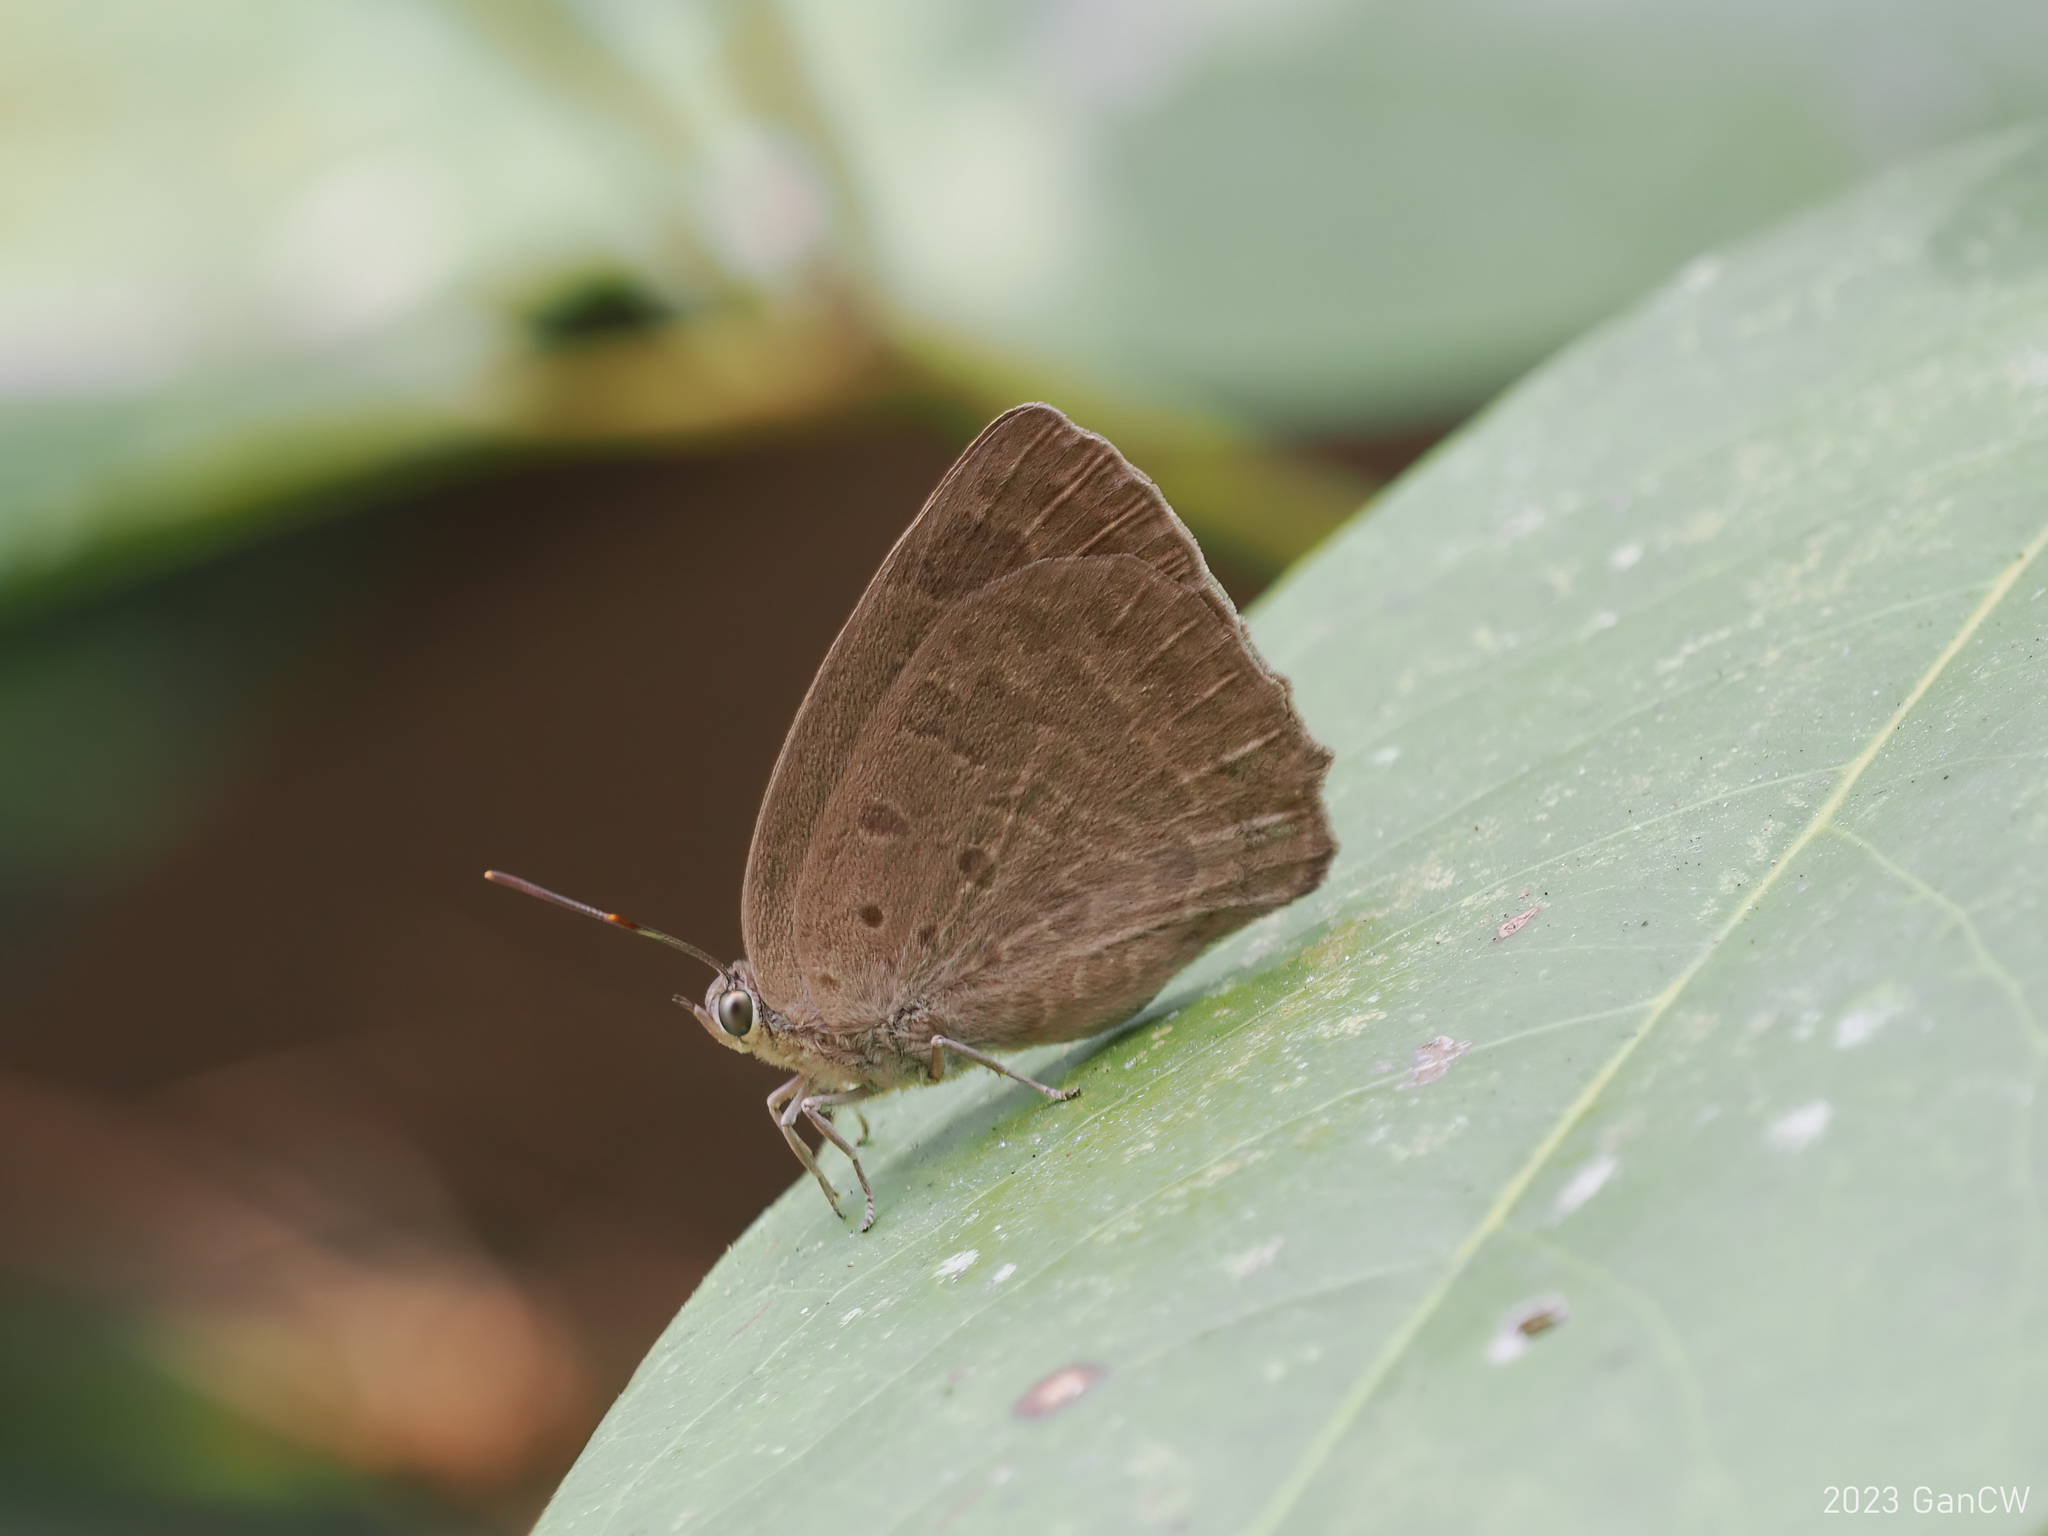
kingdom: Animalia
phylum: Arthropoda
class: Insecta
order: Lepidoptera
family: Lycaenidae
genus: Arhopala
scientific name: Arhopala asopia
